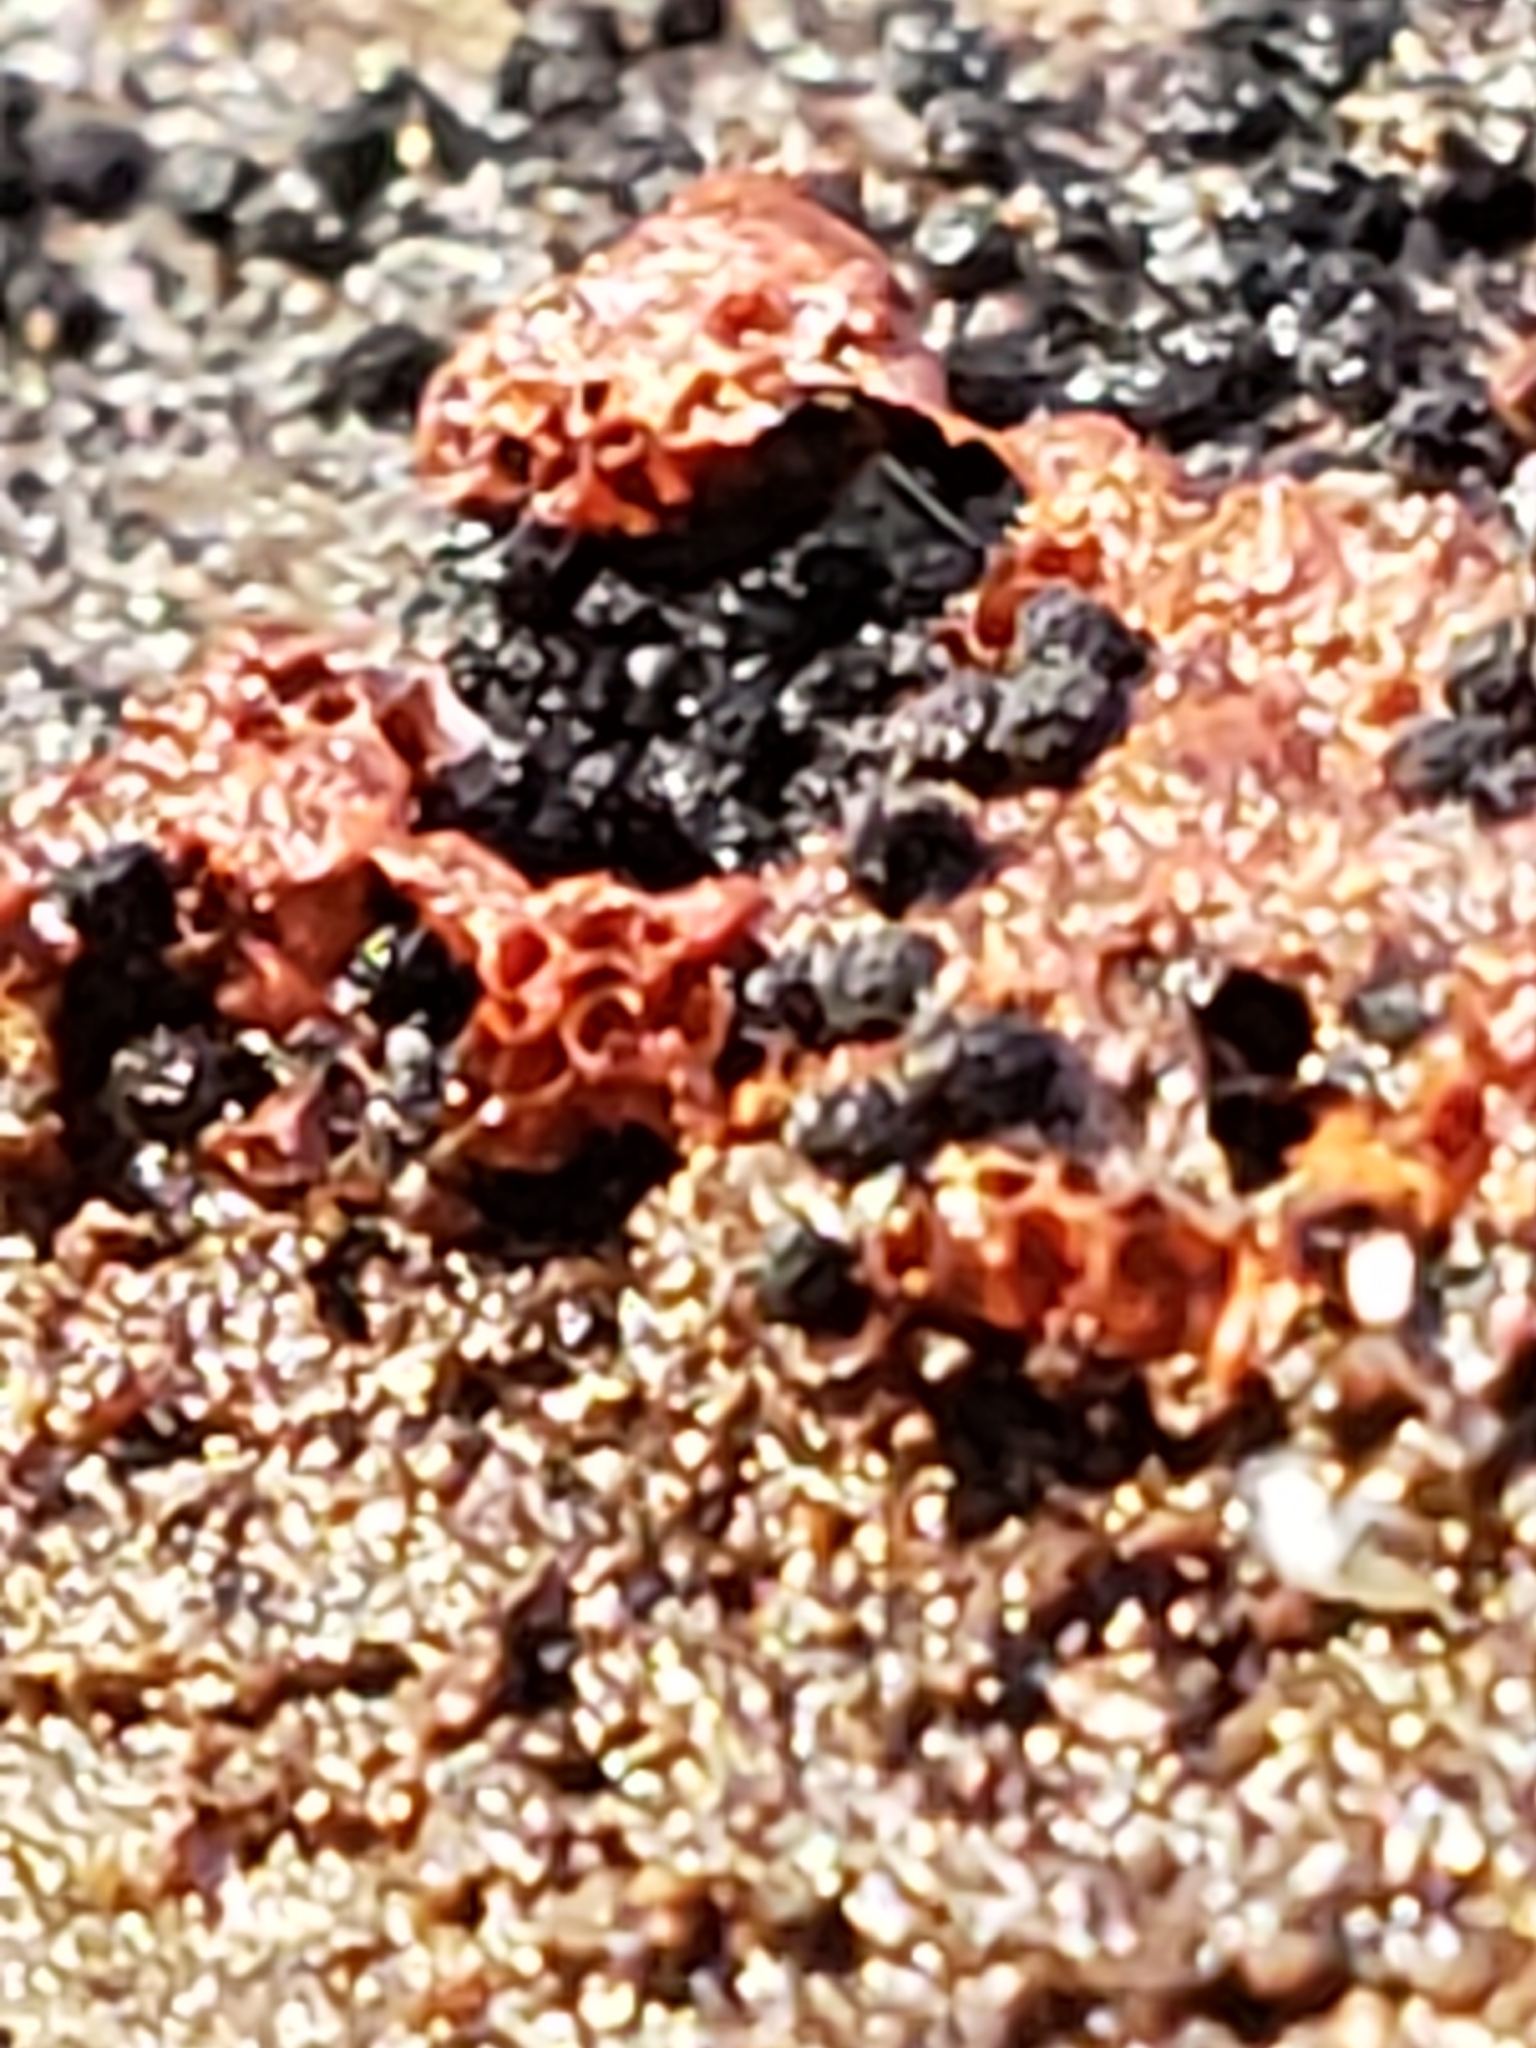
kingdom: Protozoa
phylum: Mycetozoa
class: Myxomycetes
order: Trichiales
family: Trichiaceae
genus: Metatrichia
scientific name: Metatrichia vesparia
